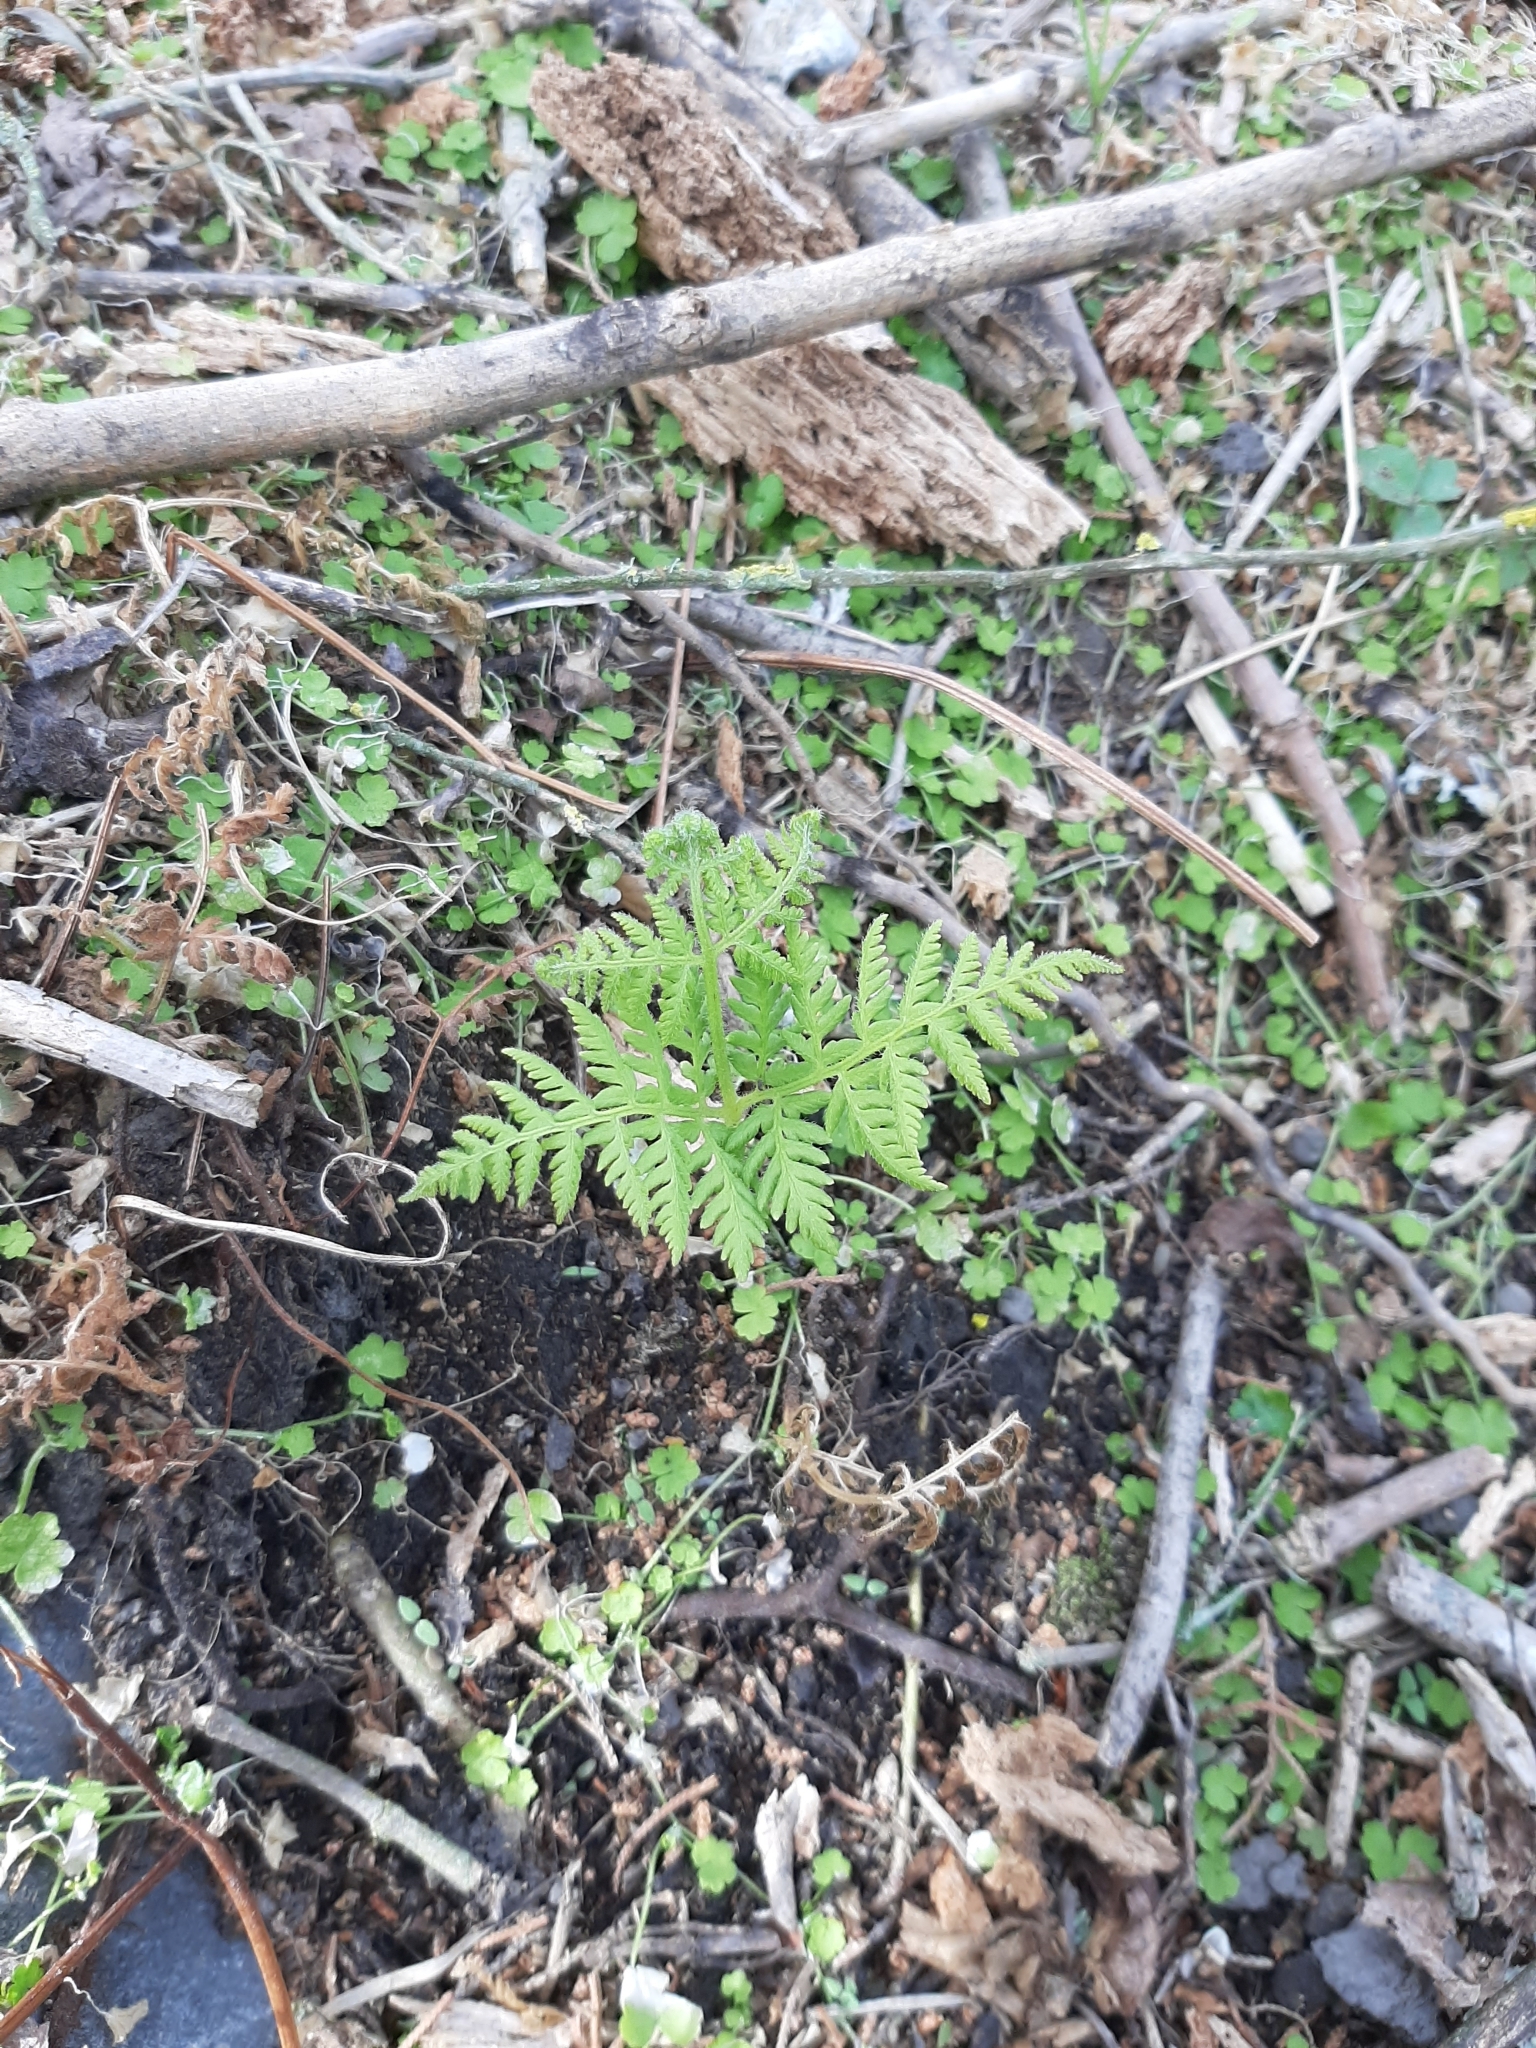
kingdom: Plantae
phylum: Tracheophyta
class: Polypodiopsida
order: Polypodiales
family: Dennstaedtiaceae
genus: Hypolepis
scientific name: Hypolepis ambigua
